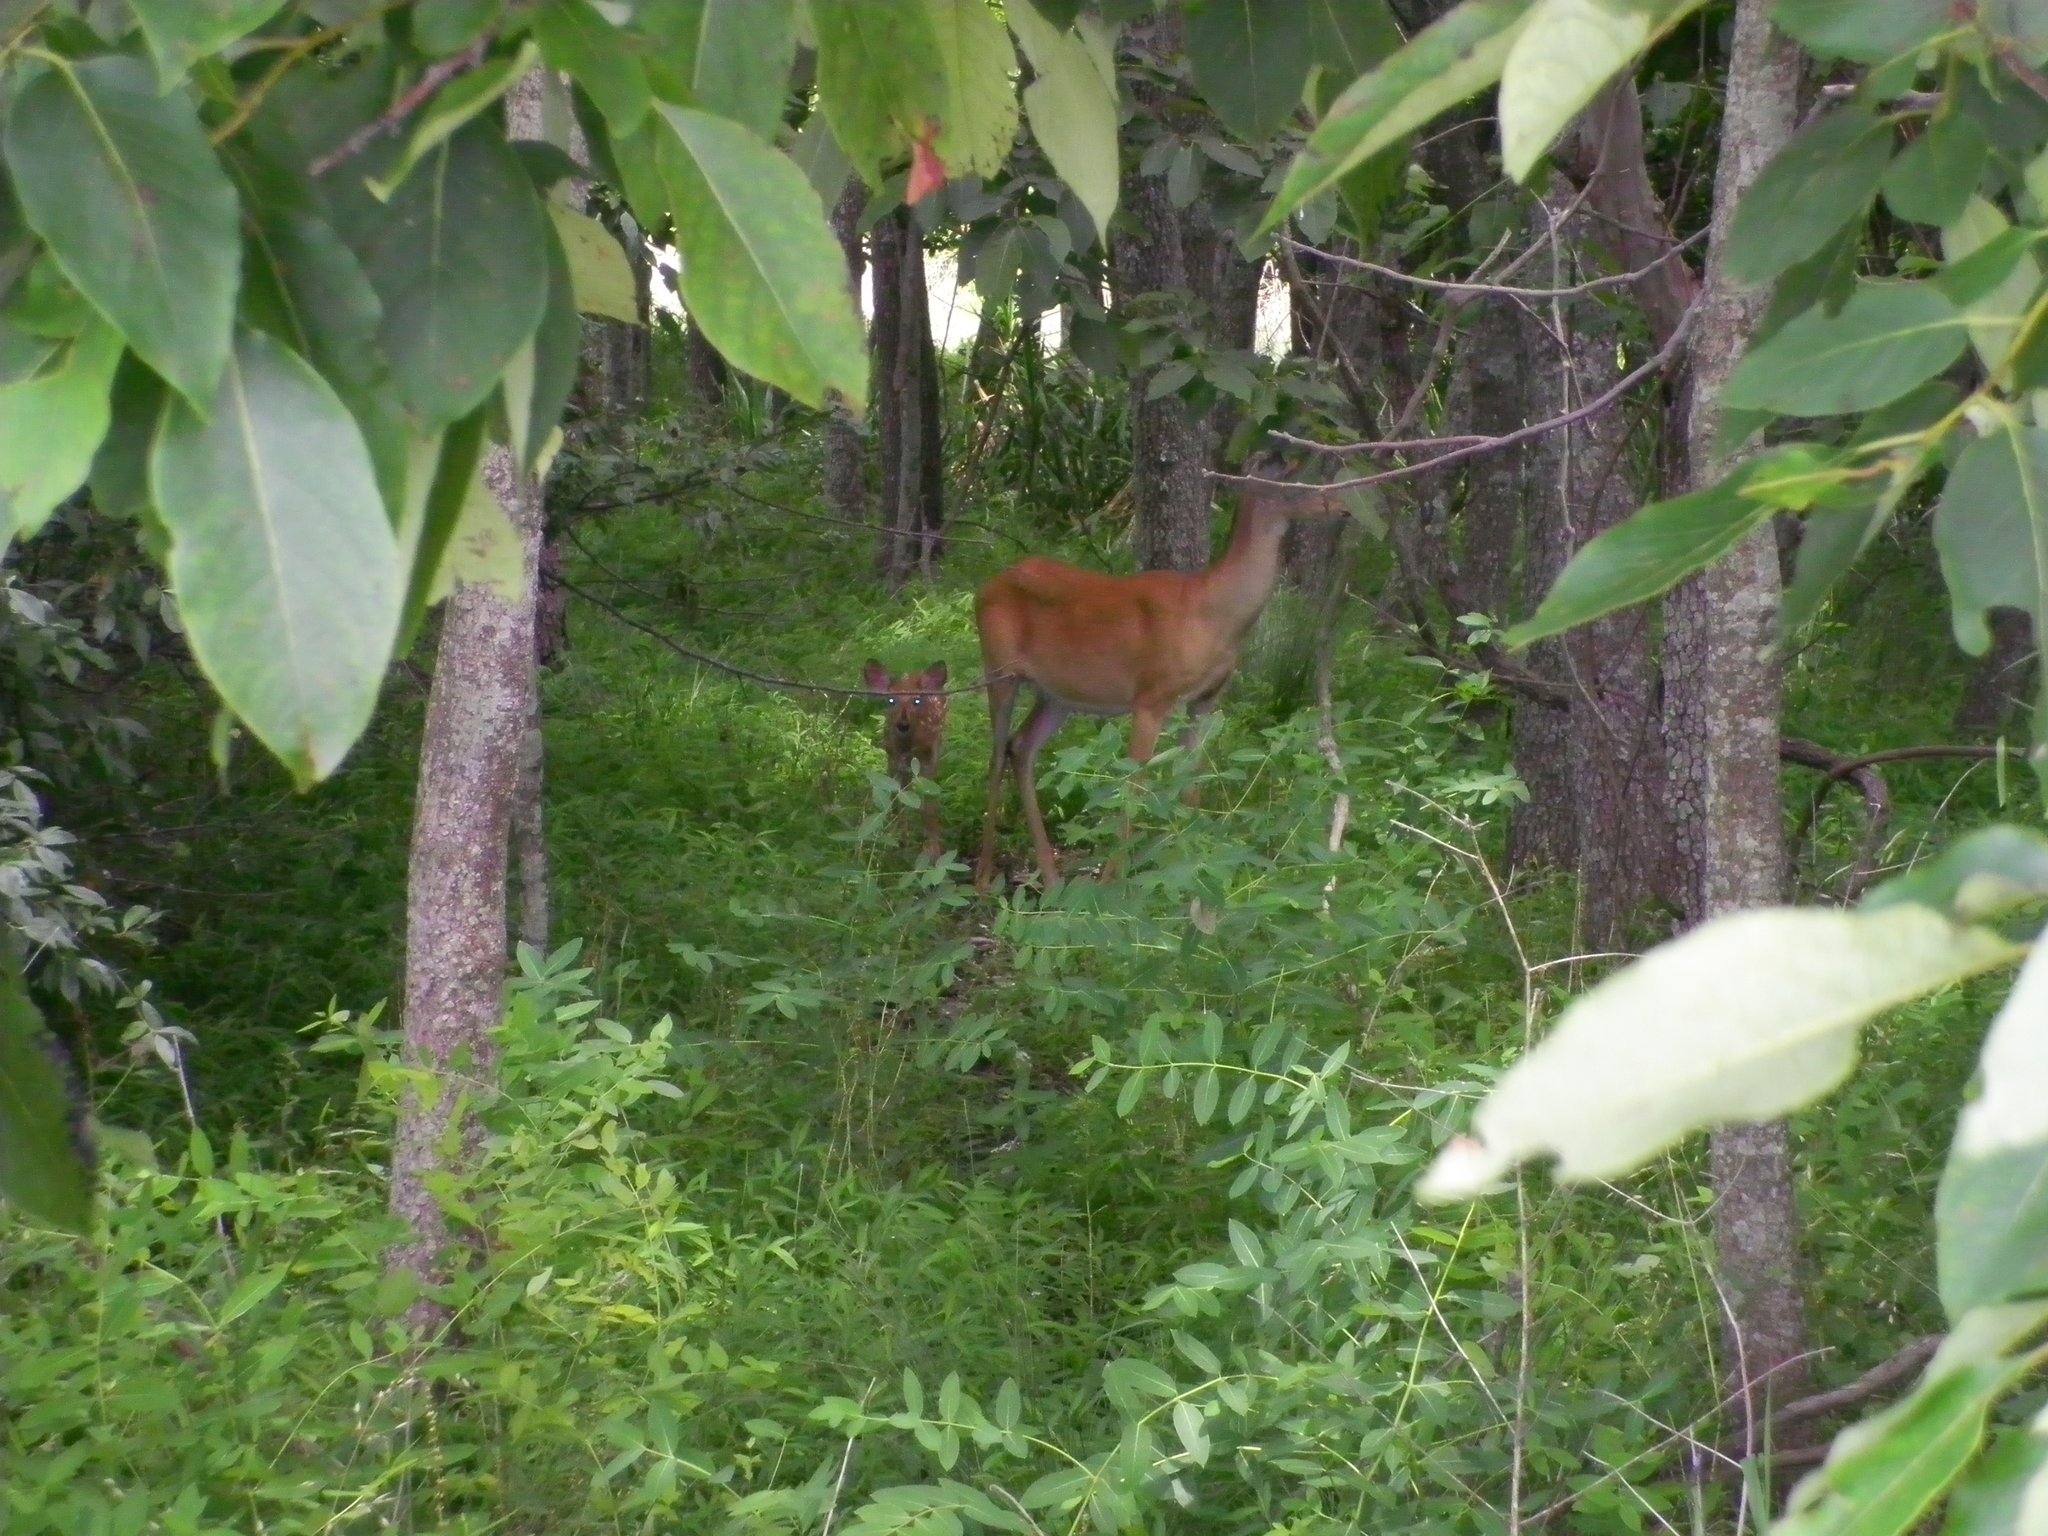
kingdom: Animalia
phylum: Chordata
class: Mammalia
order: Artiodactyla
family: Cervidae
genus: Odocoileus
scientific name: Odocoileus virginianus
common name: White-tailed deer
